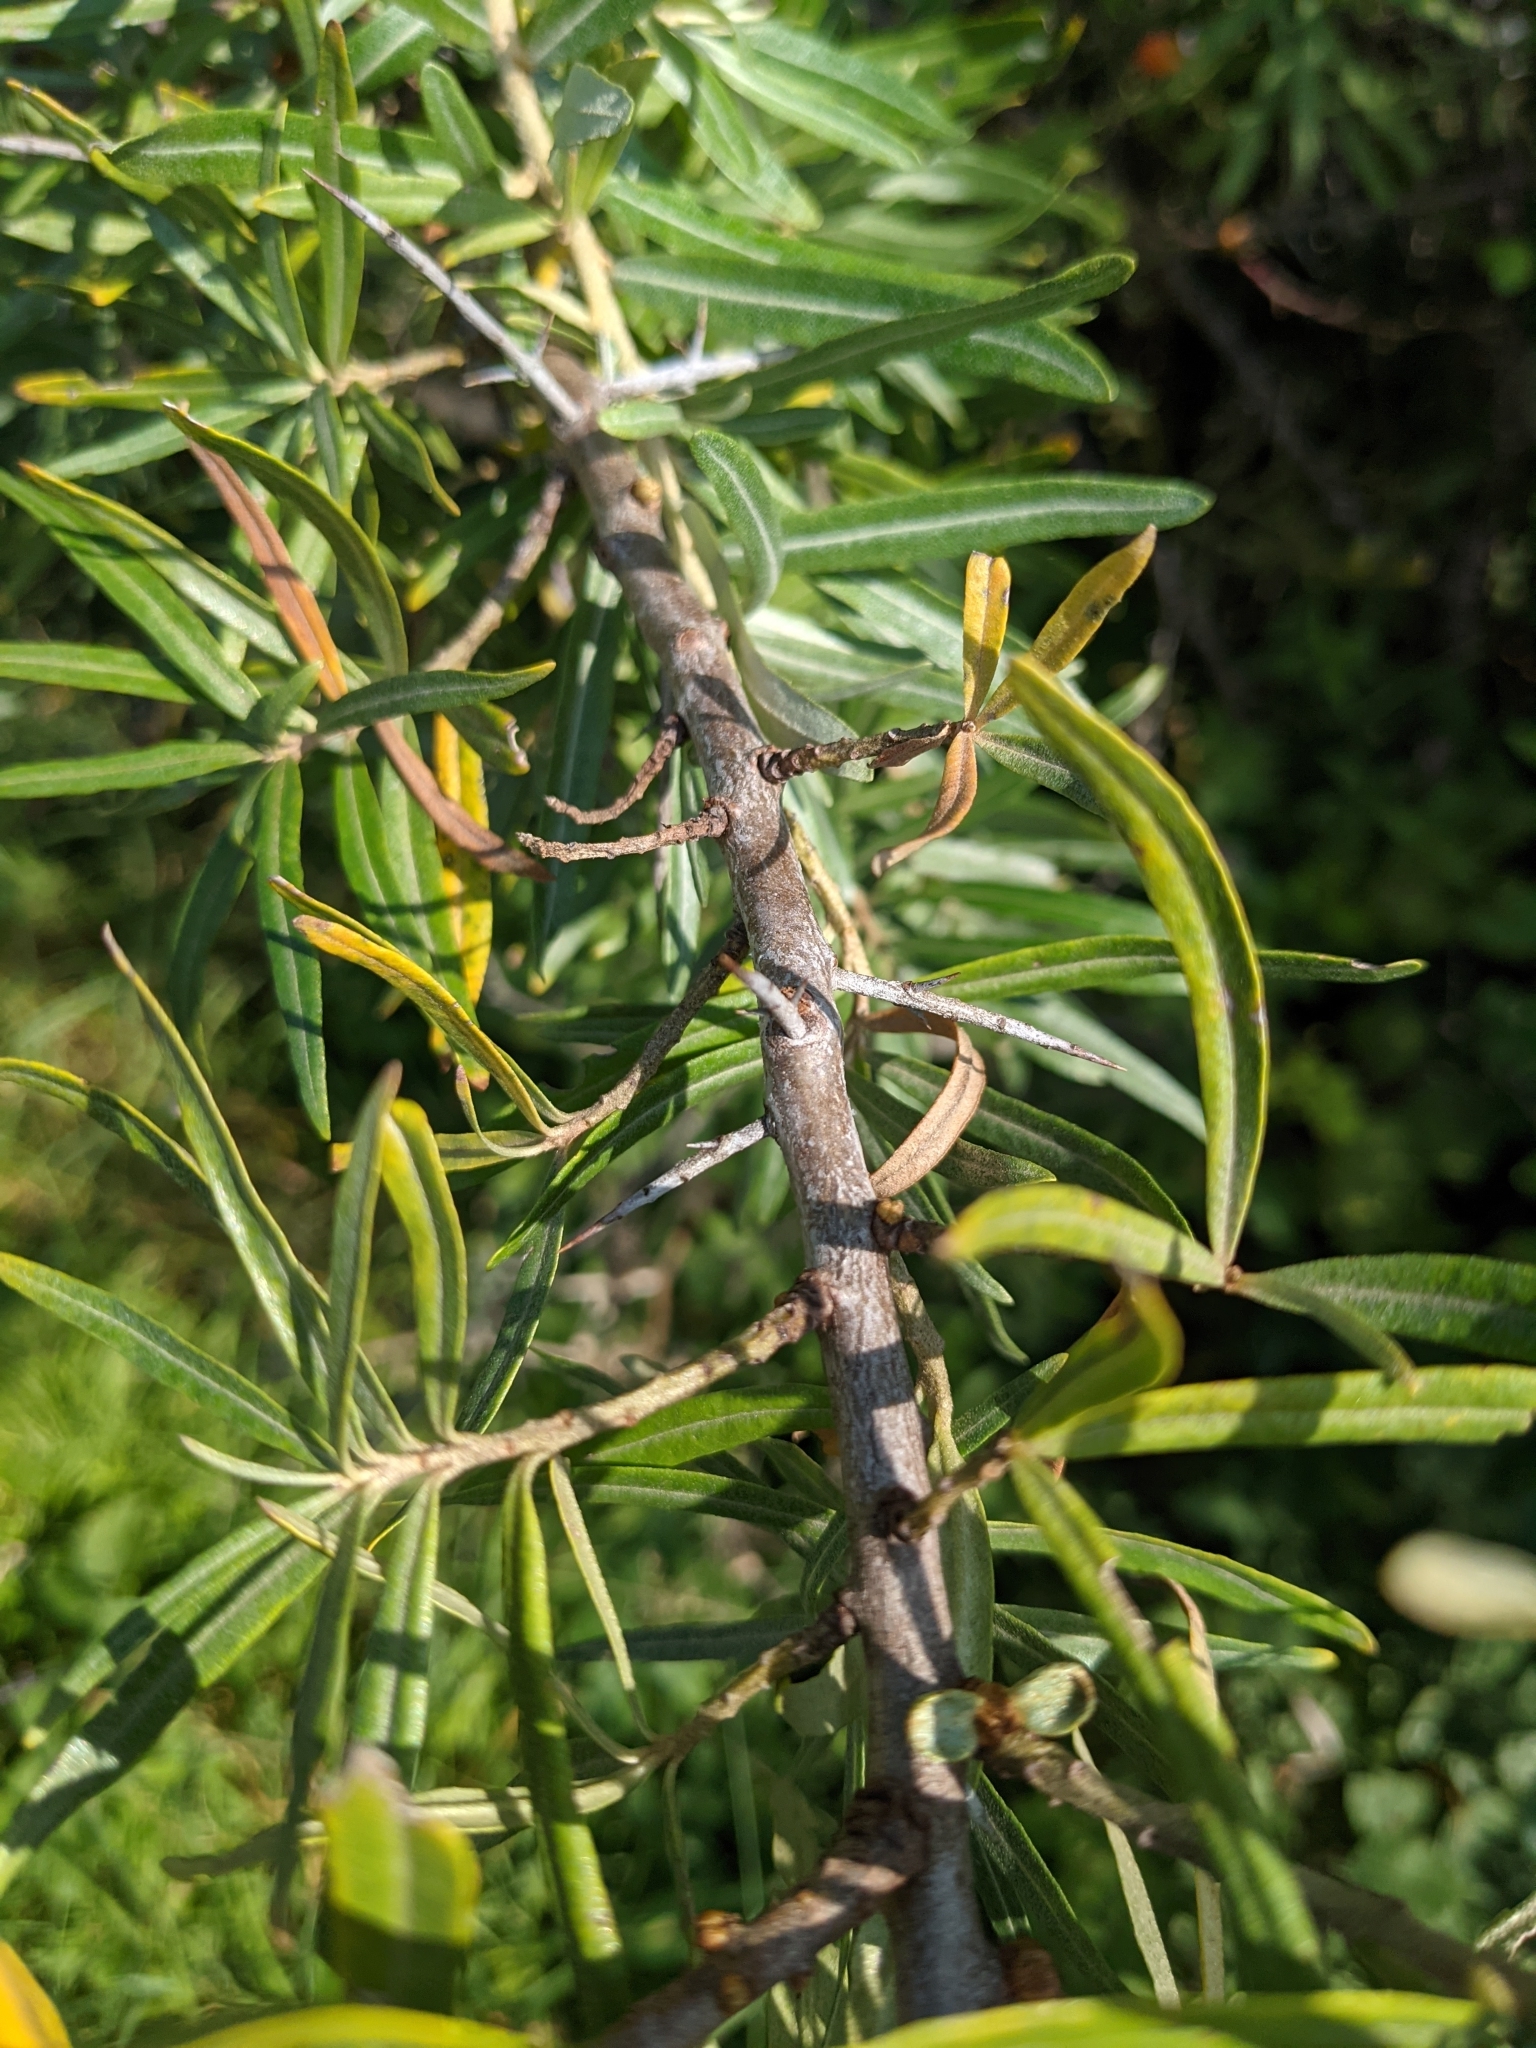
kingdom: Plantae
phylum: Tracheophyta
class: Magnoliopsida
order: Rosales
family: Elaeagnaceae
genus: Hippophae
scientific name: Hippophae rhamnoides
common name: Sea-buckthorn
